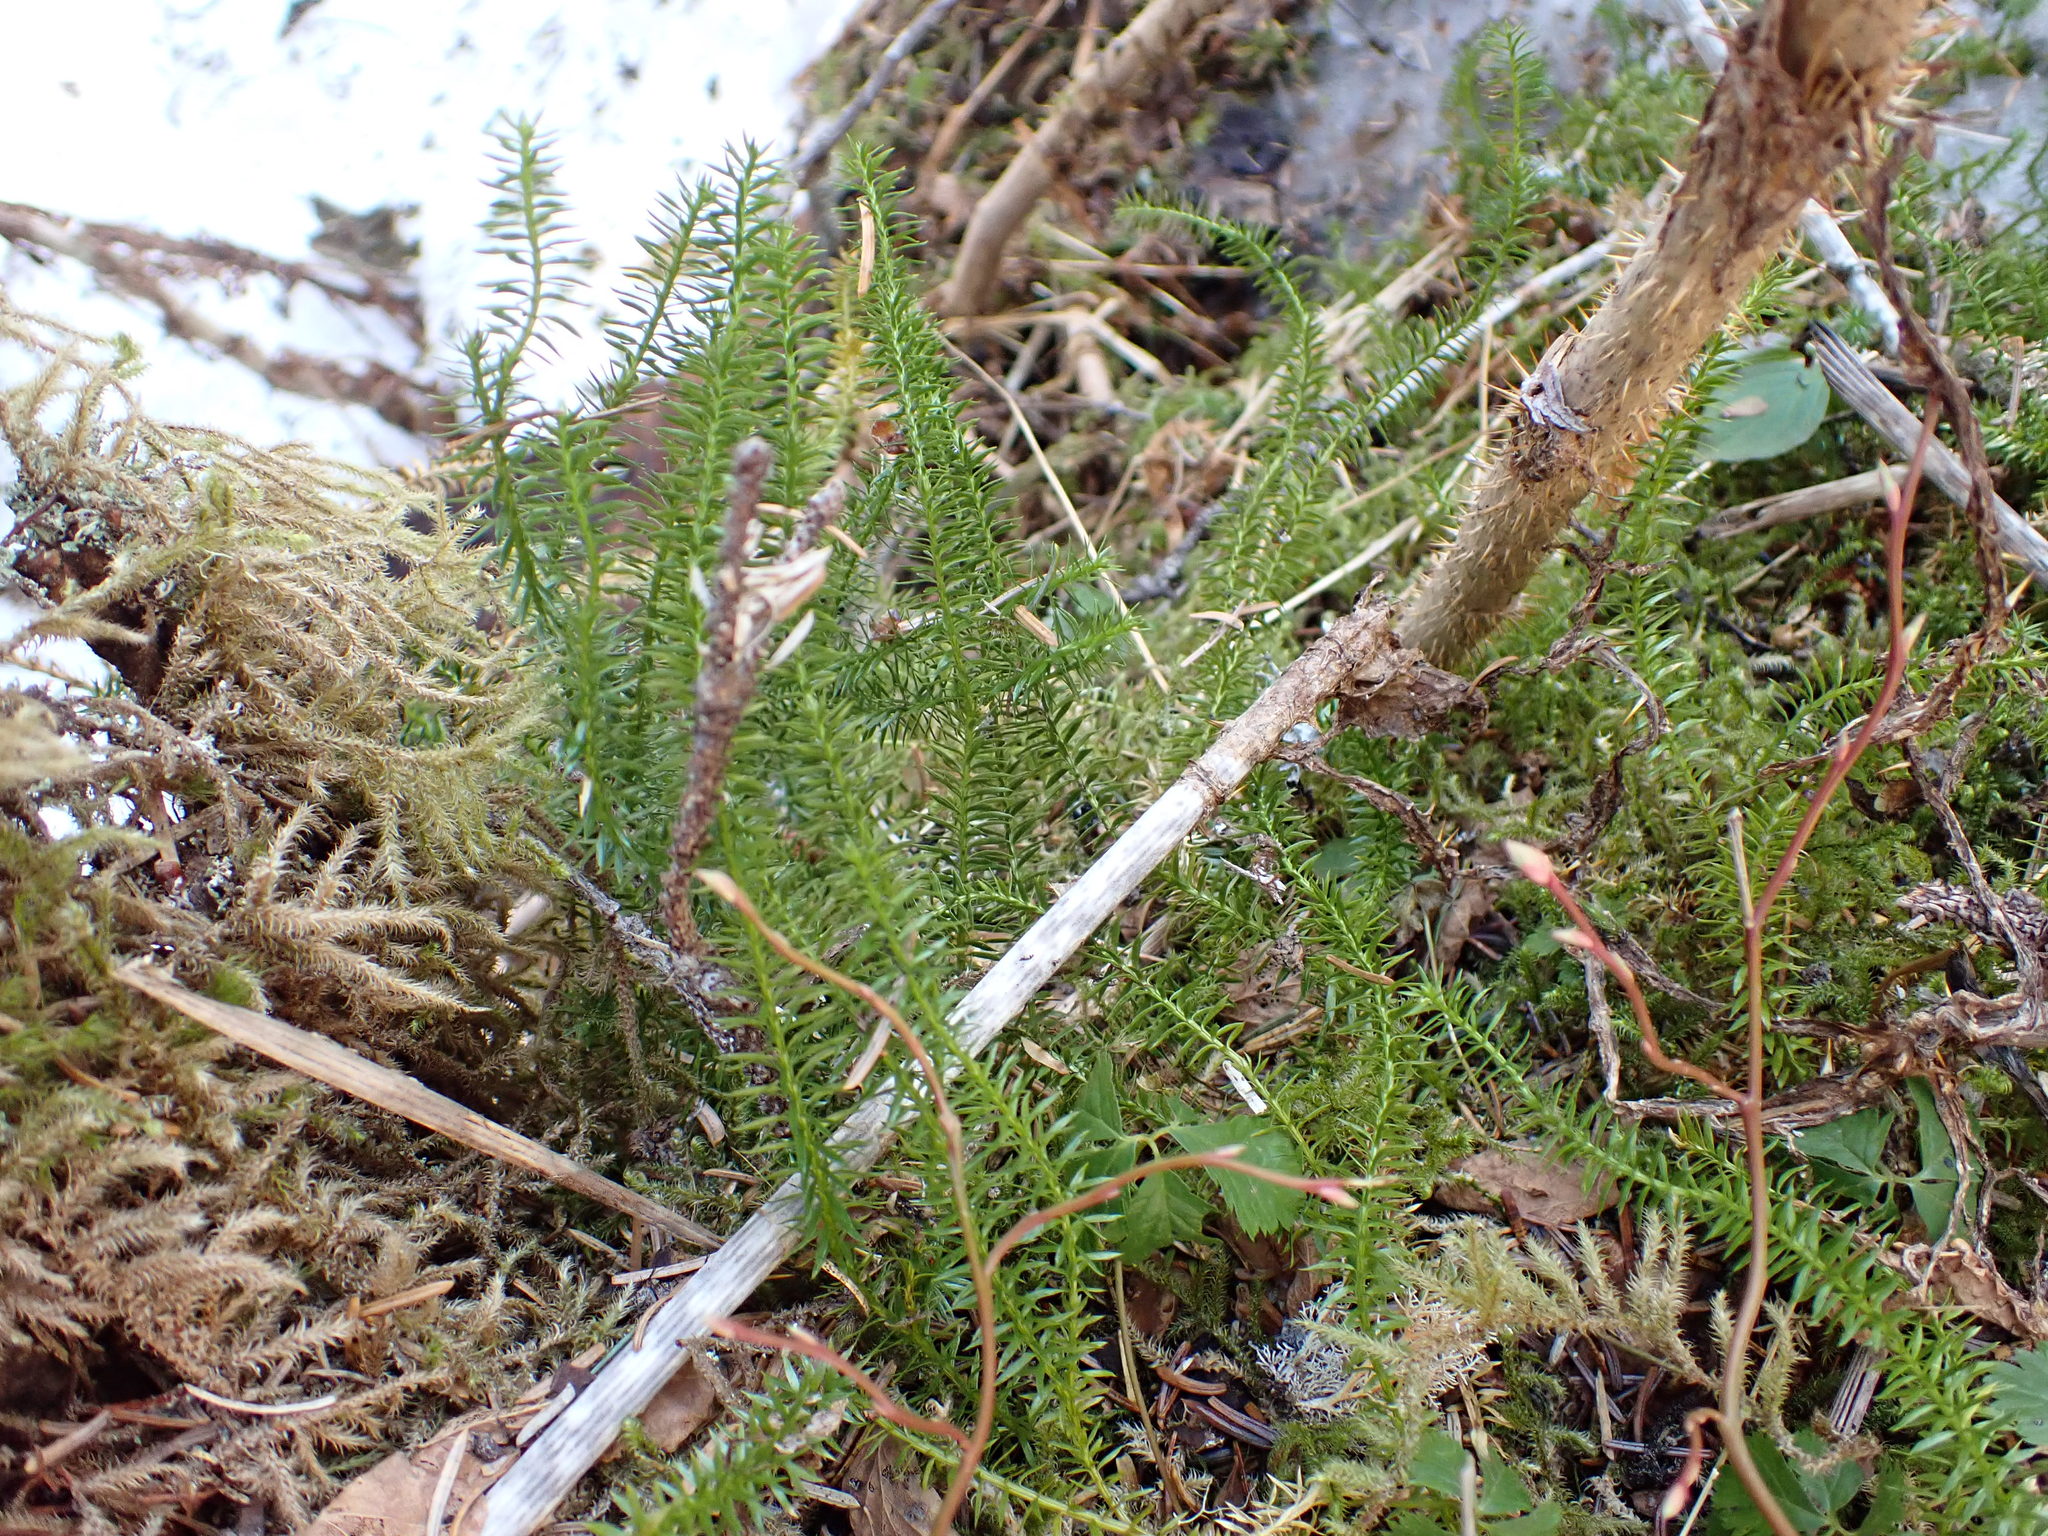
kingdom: Plantae
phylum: Tracheophyta
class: Lycopodiopsida
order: Lycopodiales
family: Lycopodiaceae
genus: Spinulum
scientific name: Spinulum annotinum
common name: Interrupted club-moss
